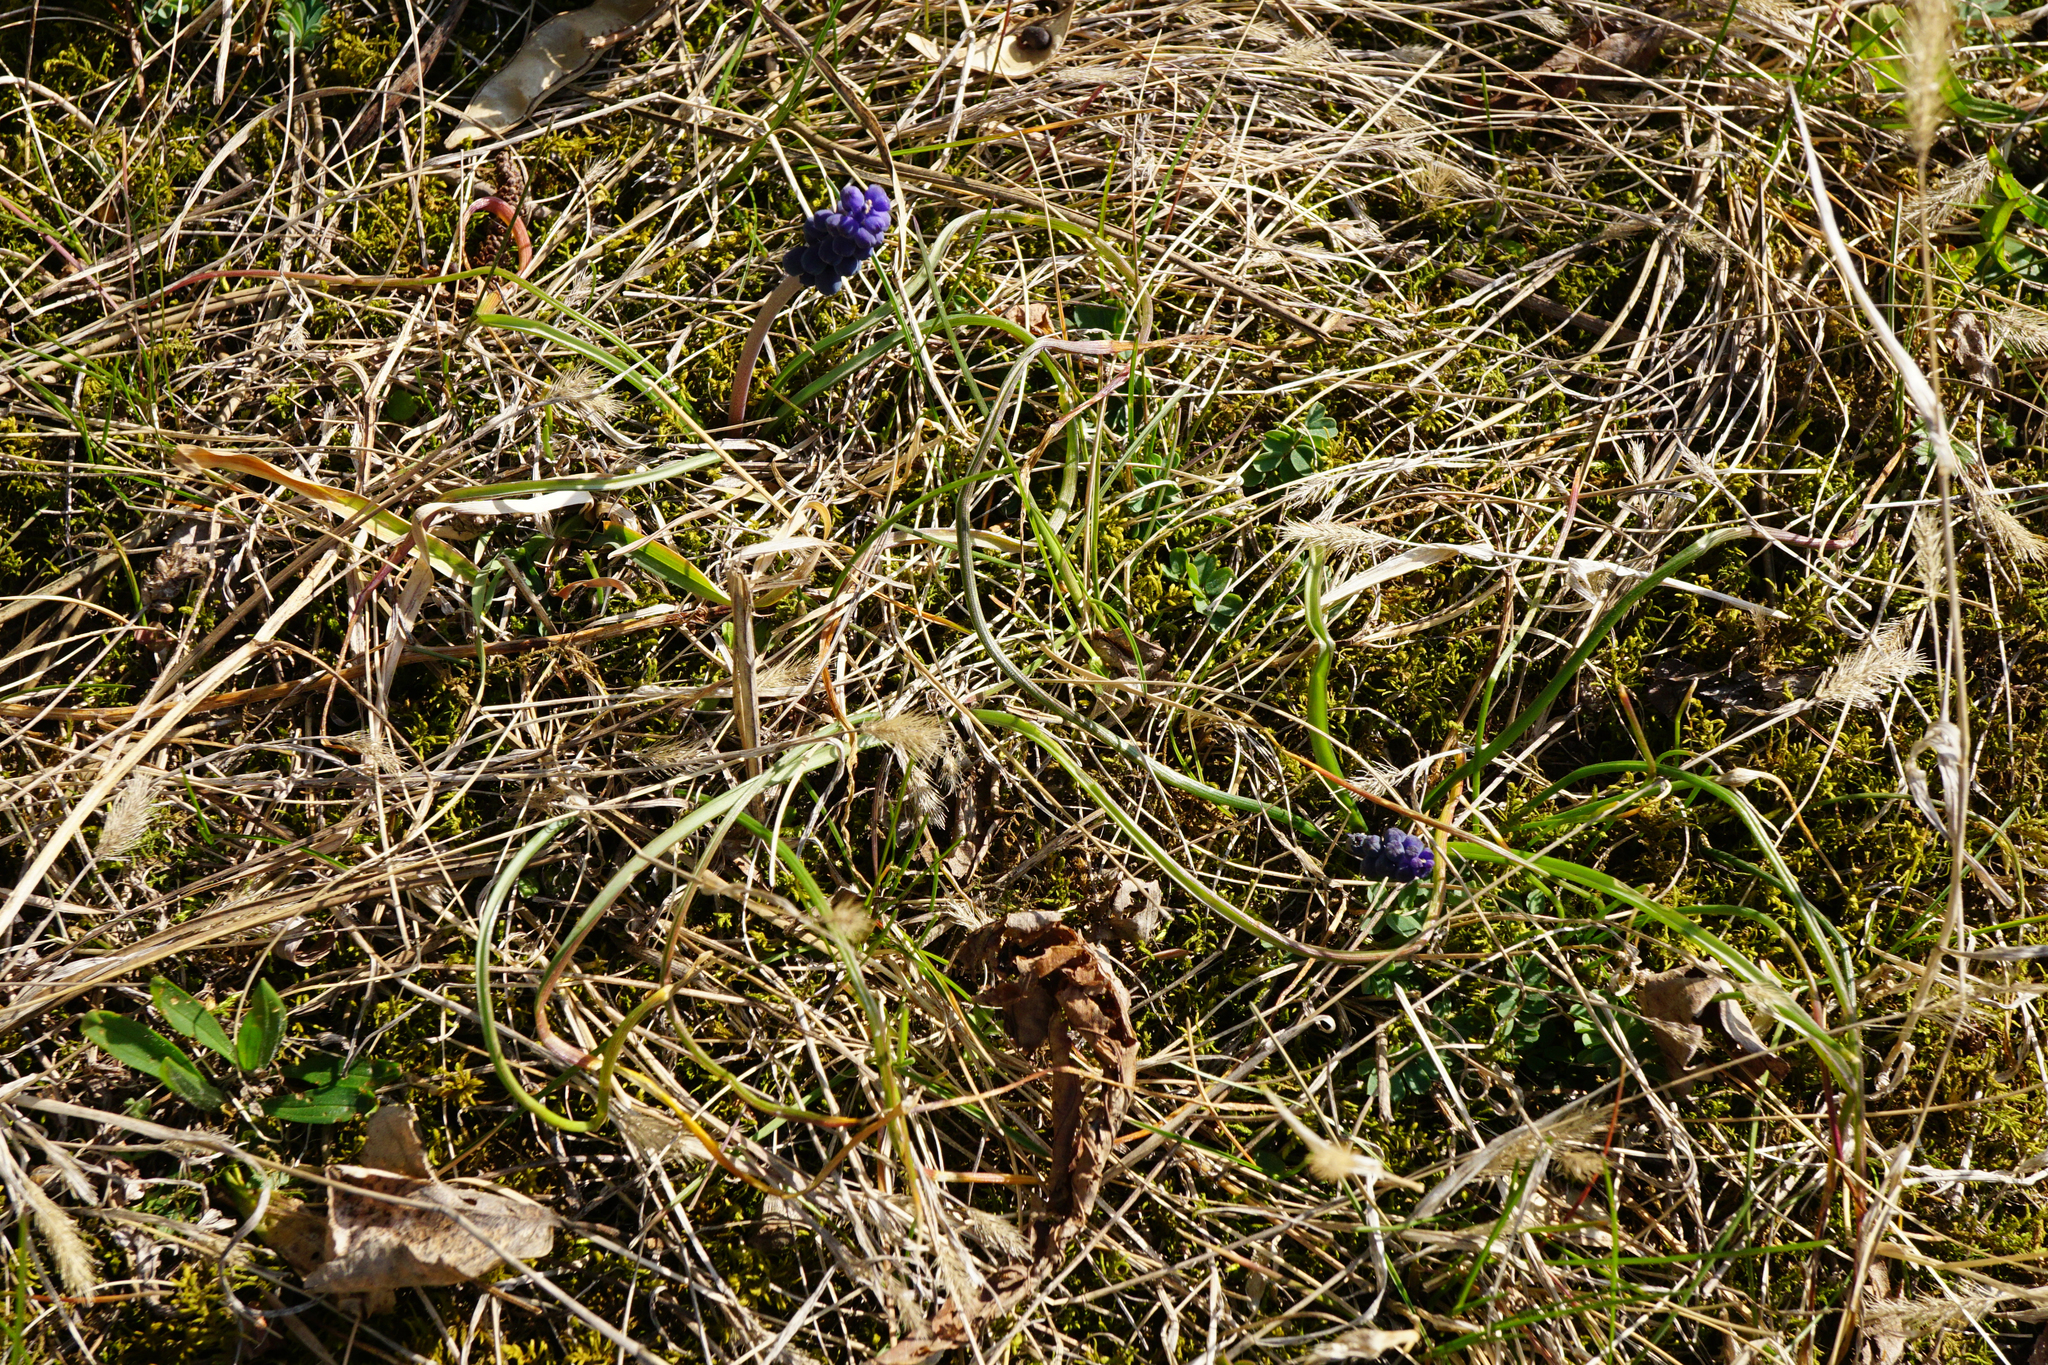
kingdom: Plantae
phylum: Tracheophyta
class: Liliopsida
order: Asparagales
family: Asparagaceae
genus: Muscari
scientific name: Muscari neglectum
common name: Grape-hyacinth
